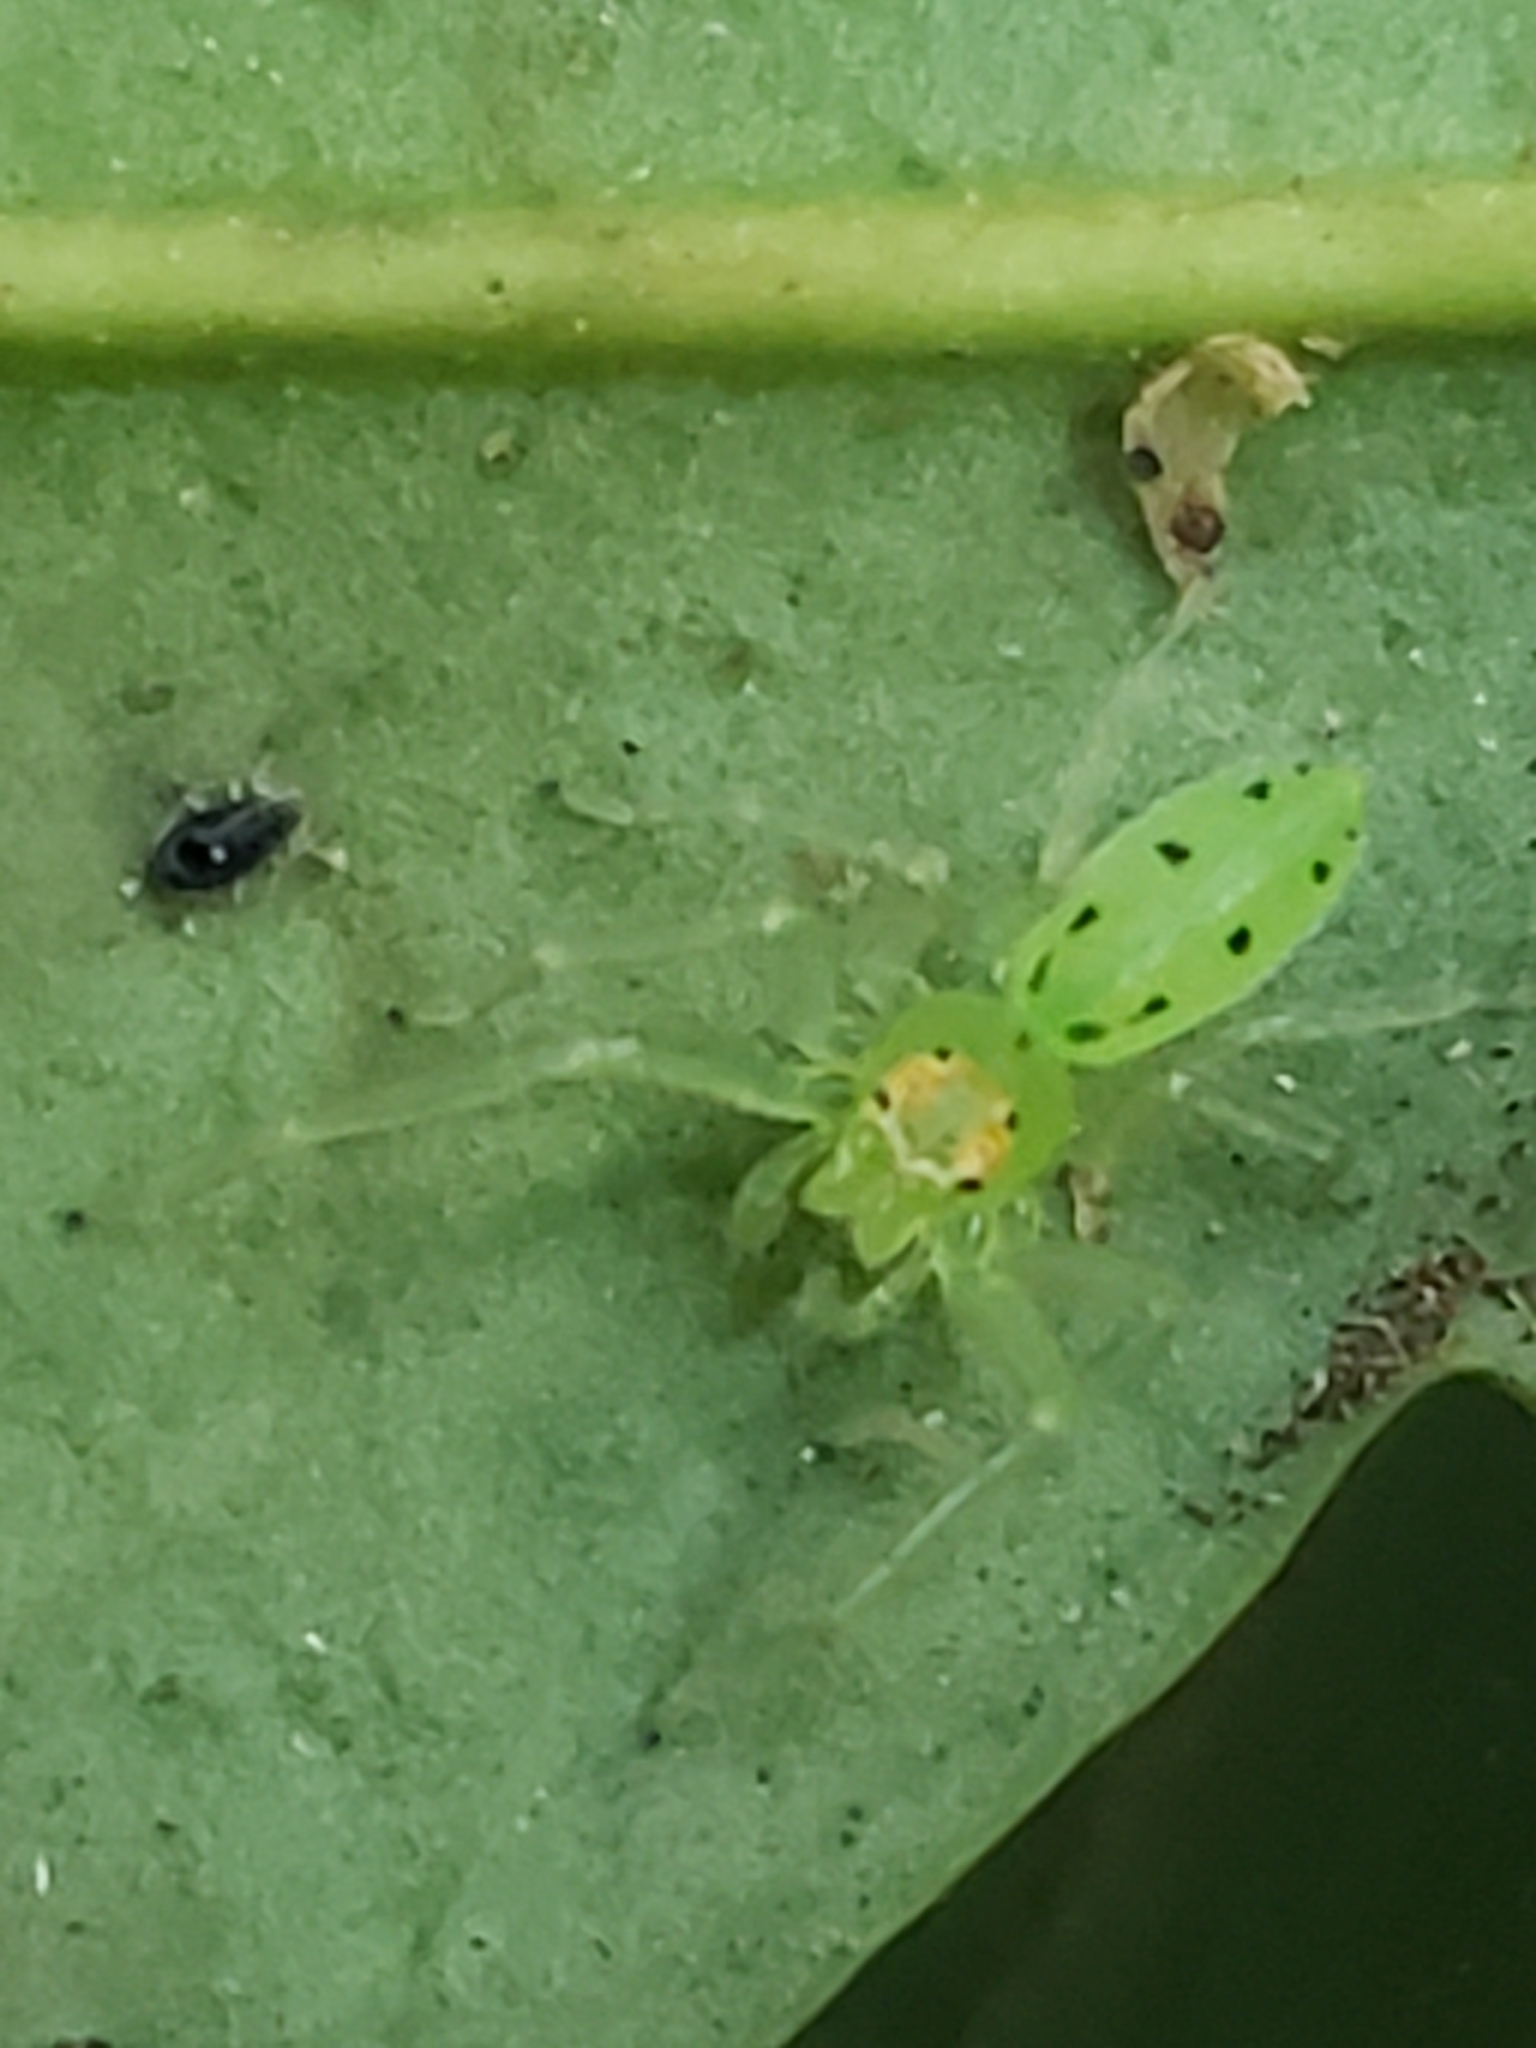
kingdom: Animalia
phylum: Arthropoda
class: Arachnida
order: Araneae
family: Salticidae
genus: Lyssomanes
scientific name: Lyssomanes viridis
